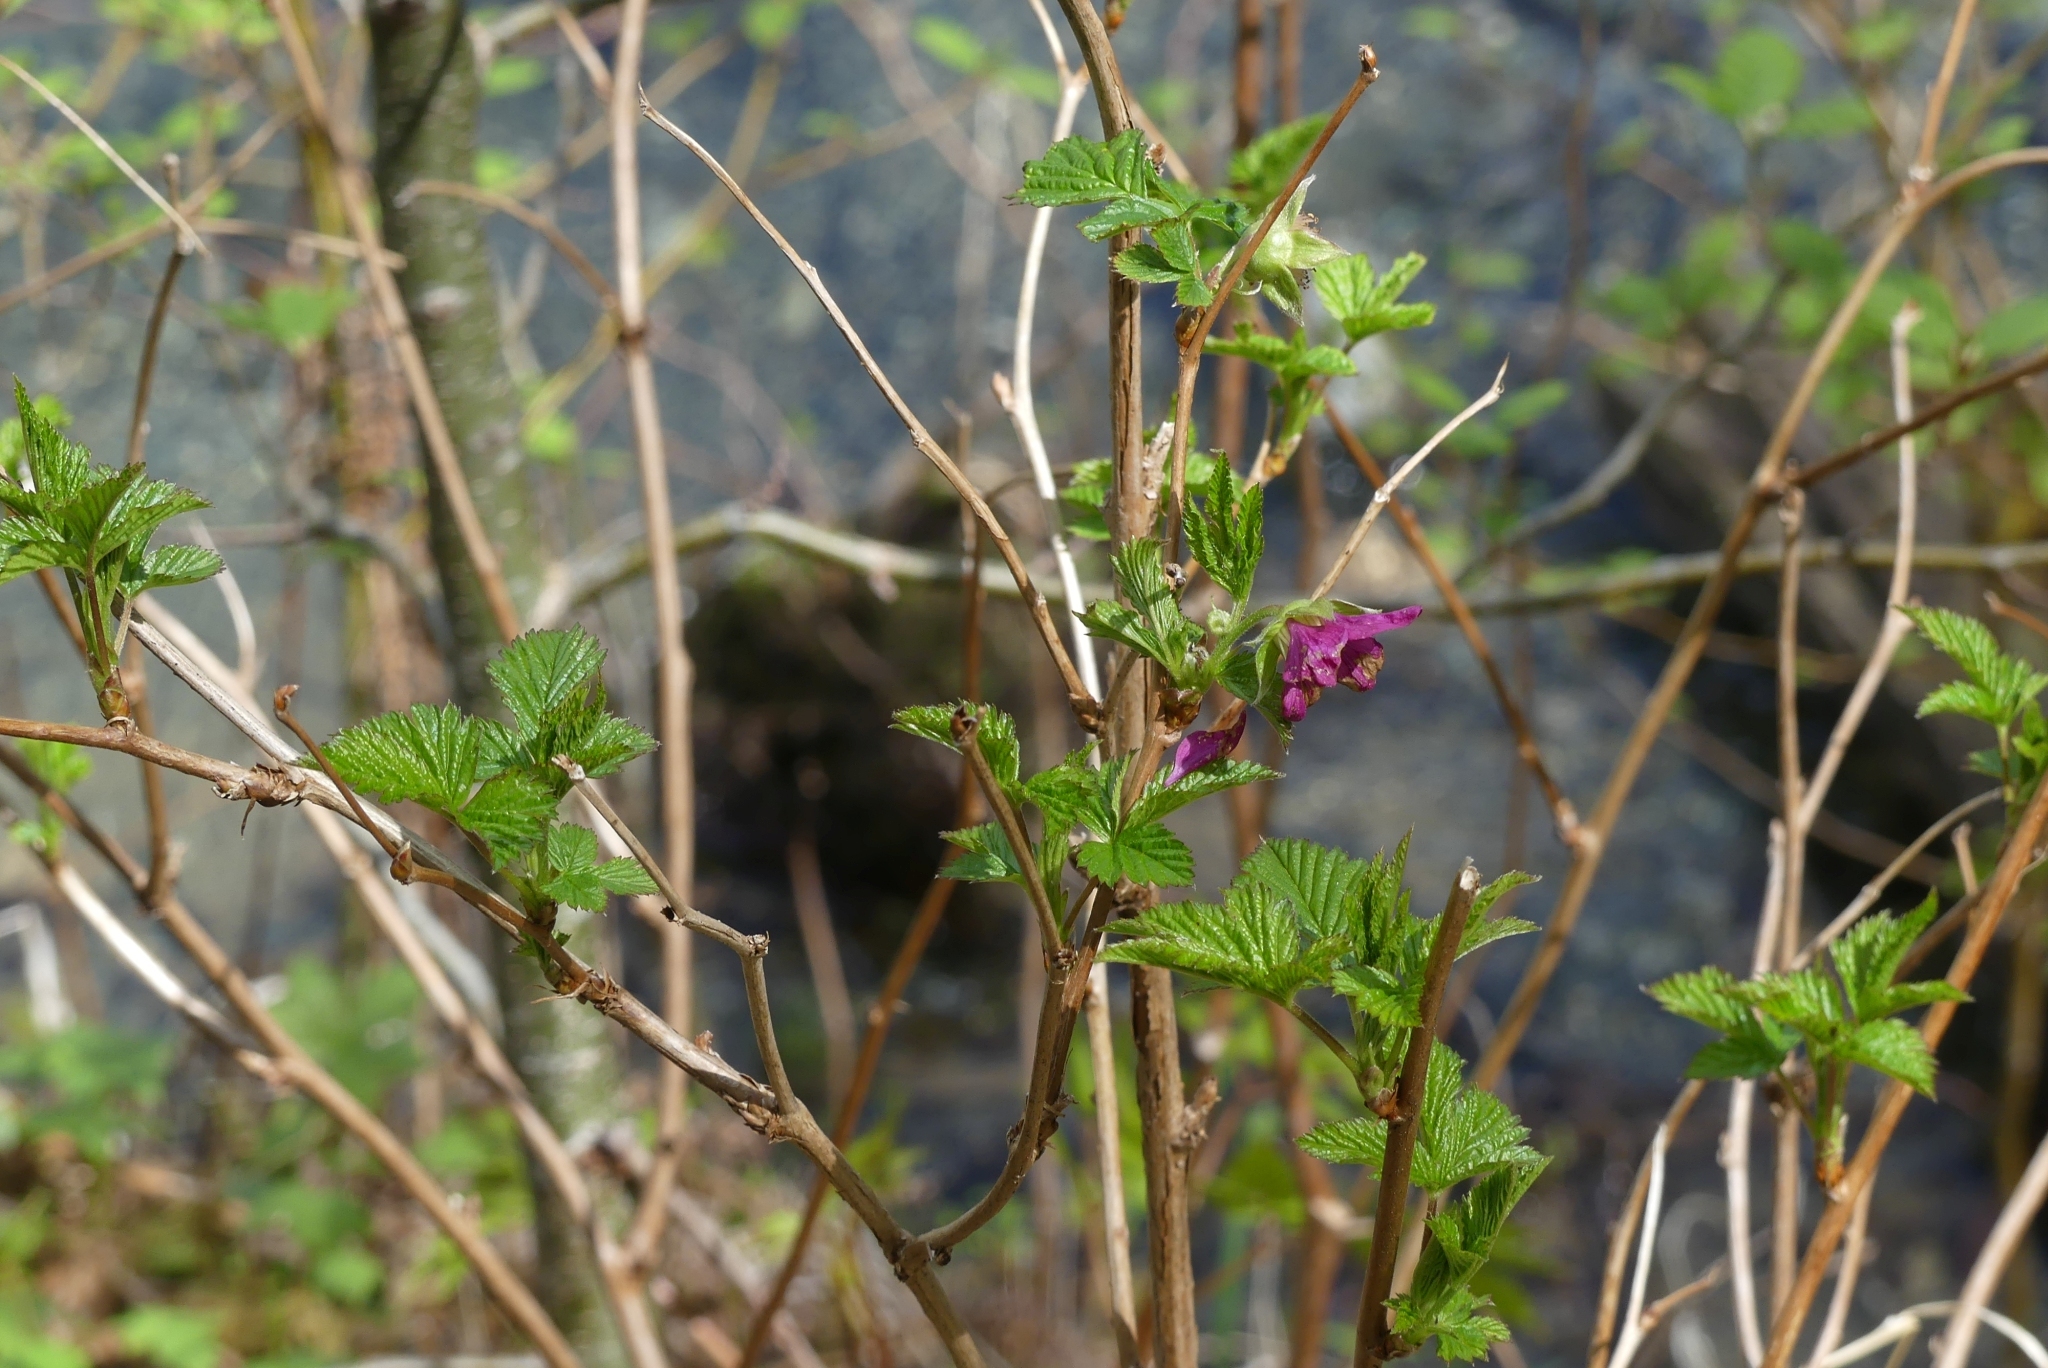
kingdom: Plantae
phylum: Tracheophyta
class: Magnoliopsida
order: Rosales
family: Rosaceae
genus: Rubus
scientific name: Rubus spectabilis
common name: Salmonberry
